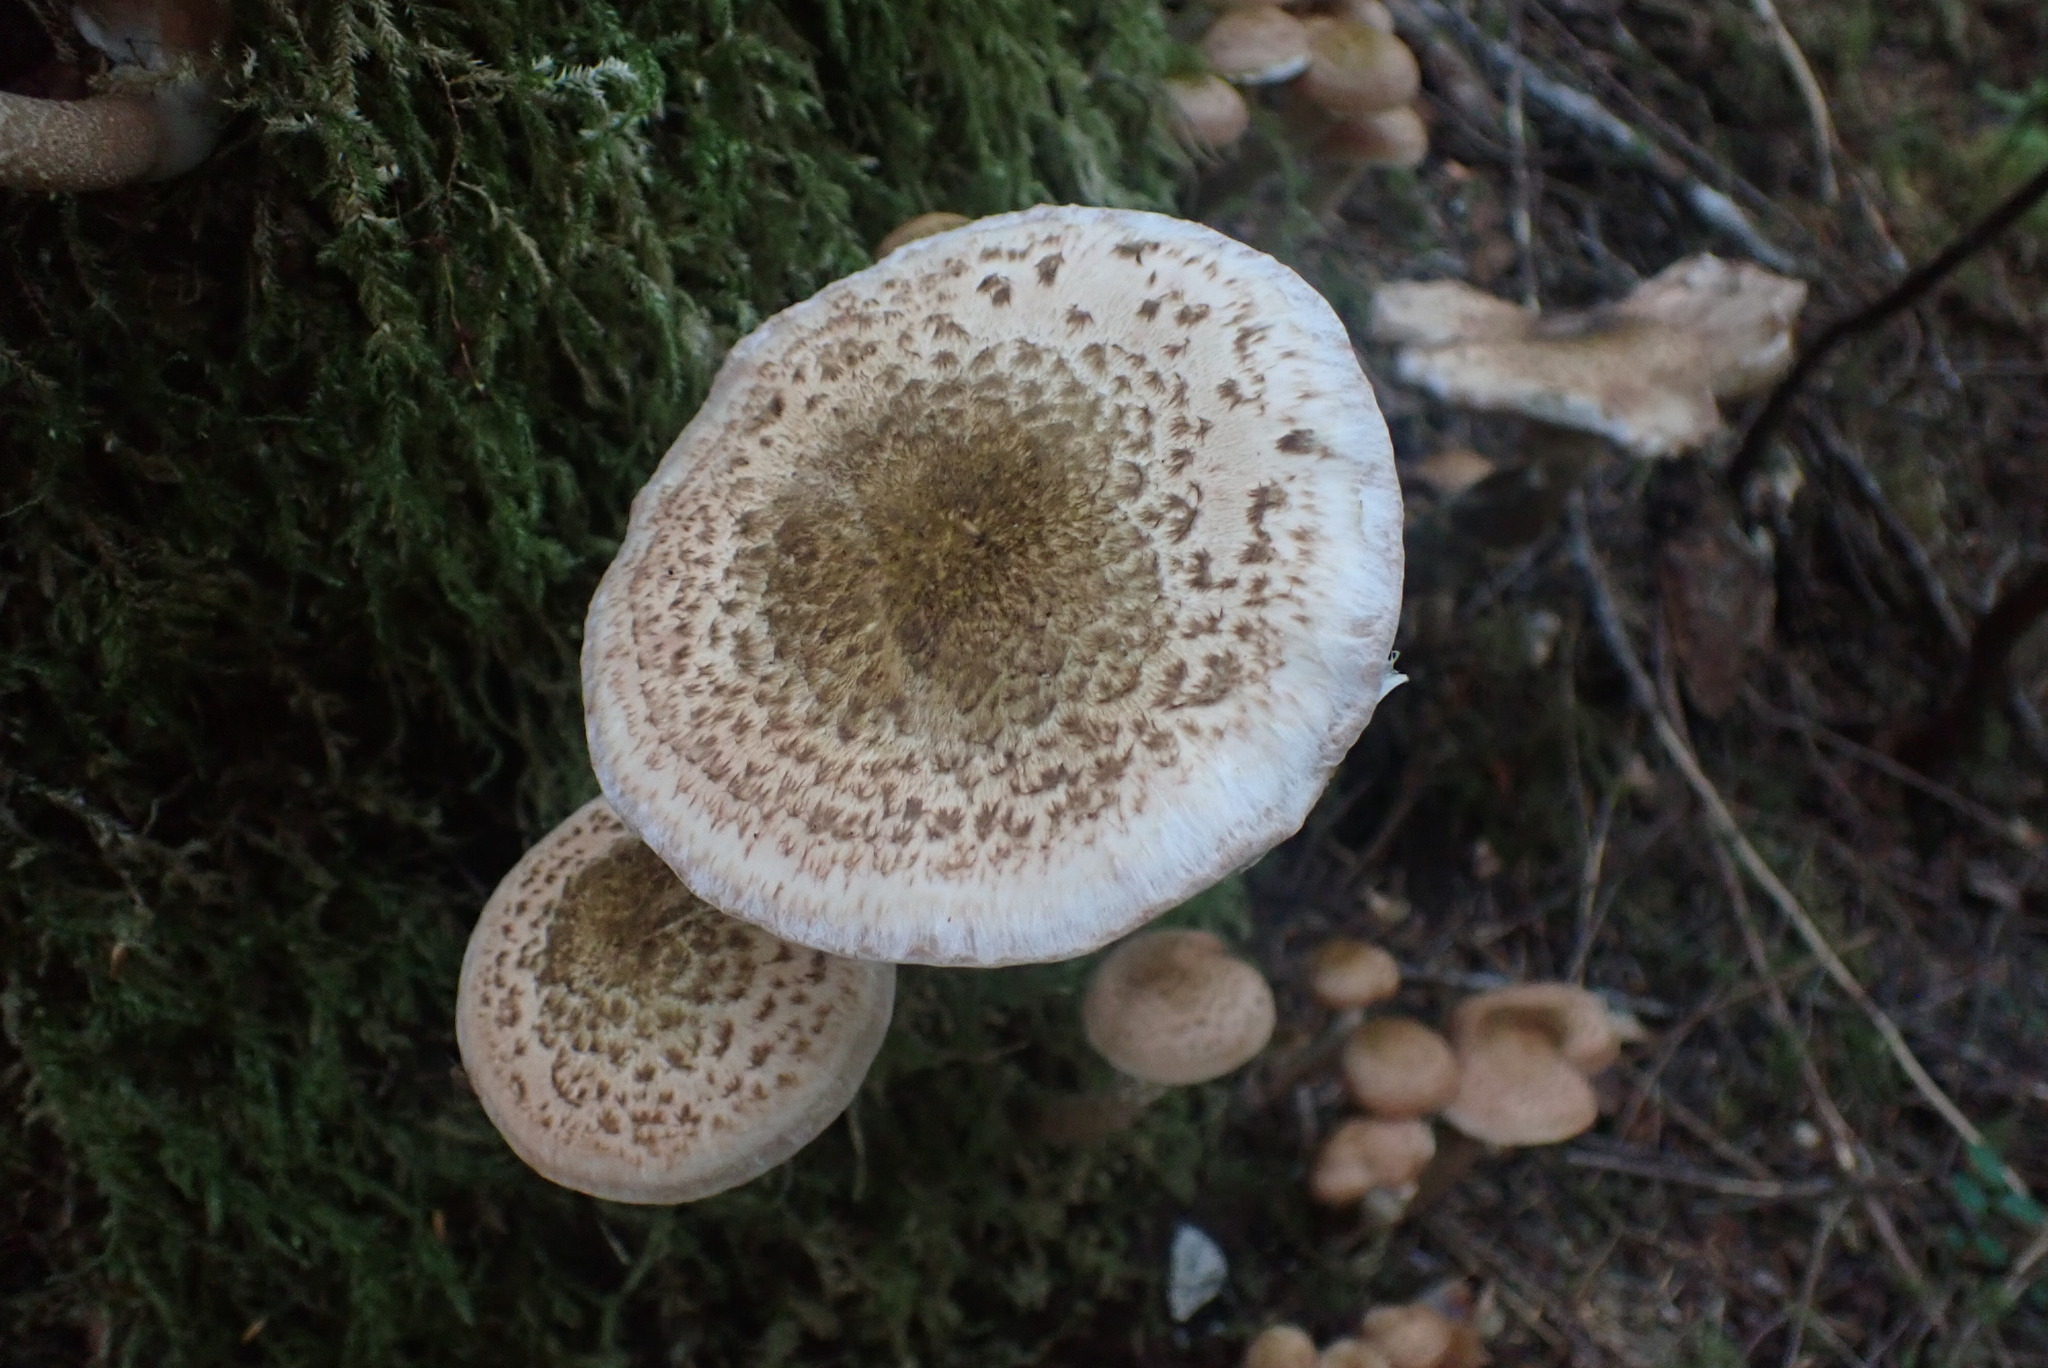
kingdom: Fungi
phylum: Basidiomycota
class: Agaricomycetes
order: Agaricales
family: Physalacriaceae
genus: Armillaria
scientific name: Armillaria sinapina
